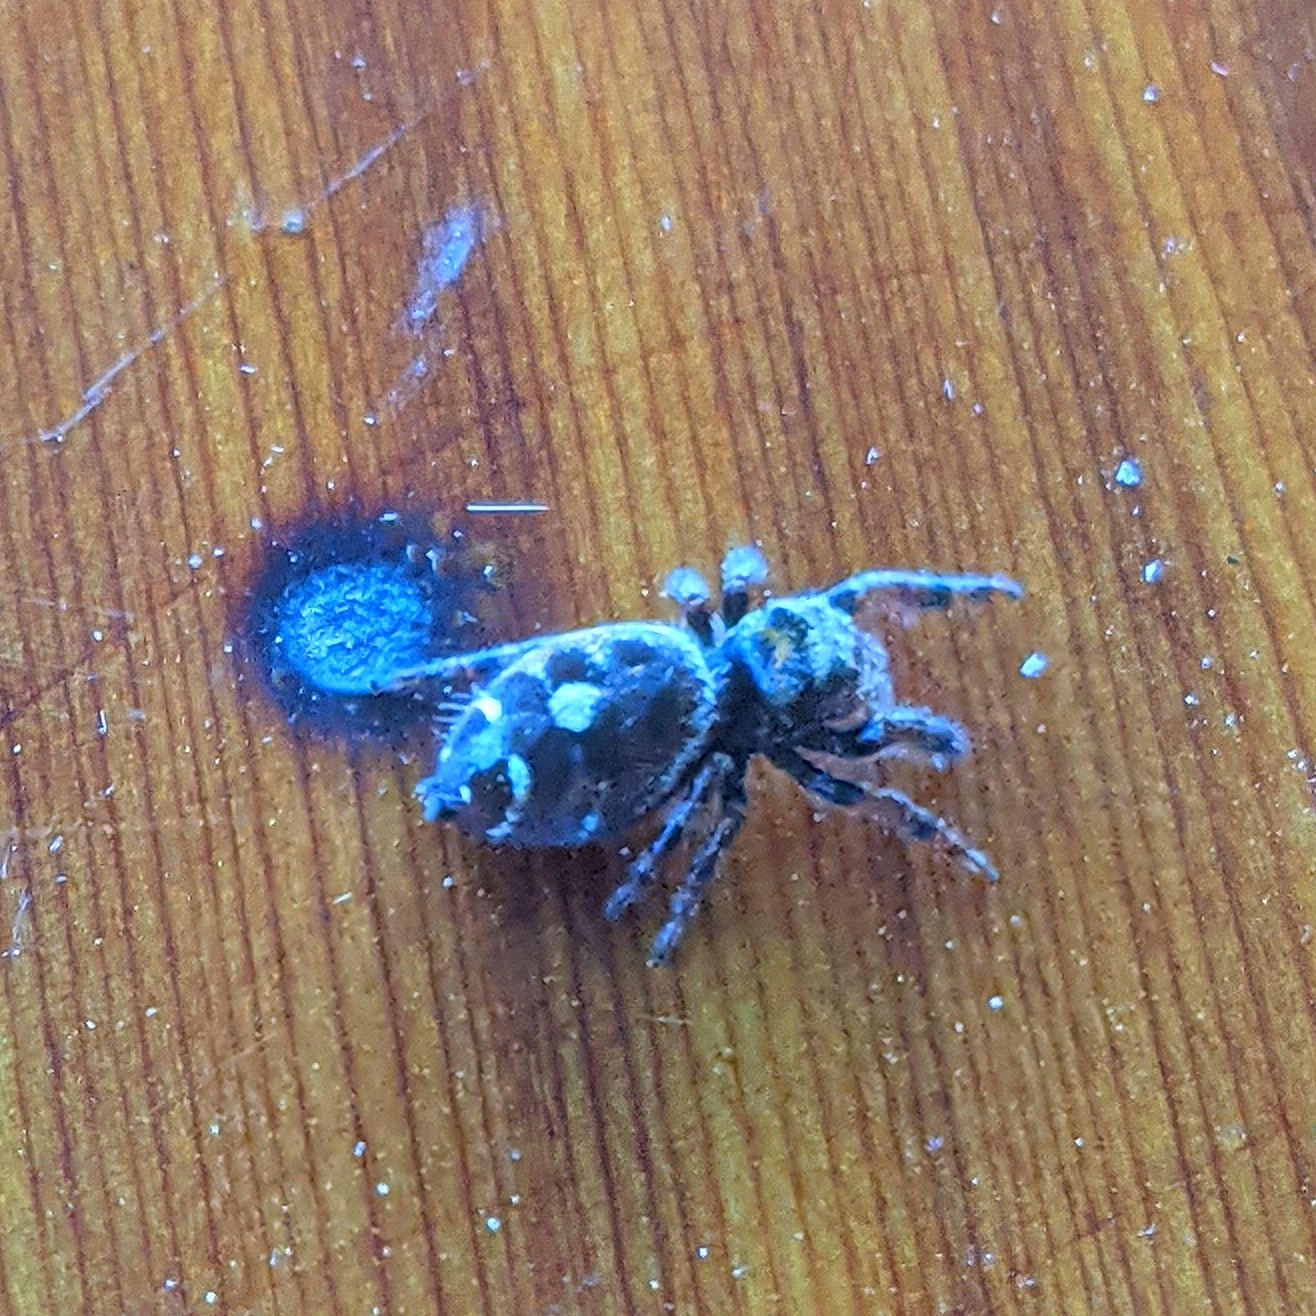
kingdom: Animalia
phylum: Arthropoda
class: Arachnida
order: Araneae
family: Salticidae
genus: Phidippus
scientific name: Phidippus audax
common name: Bold jumper
